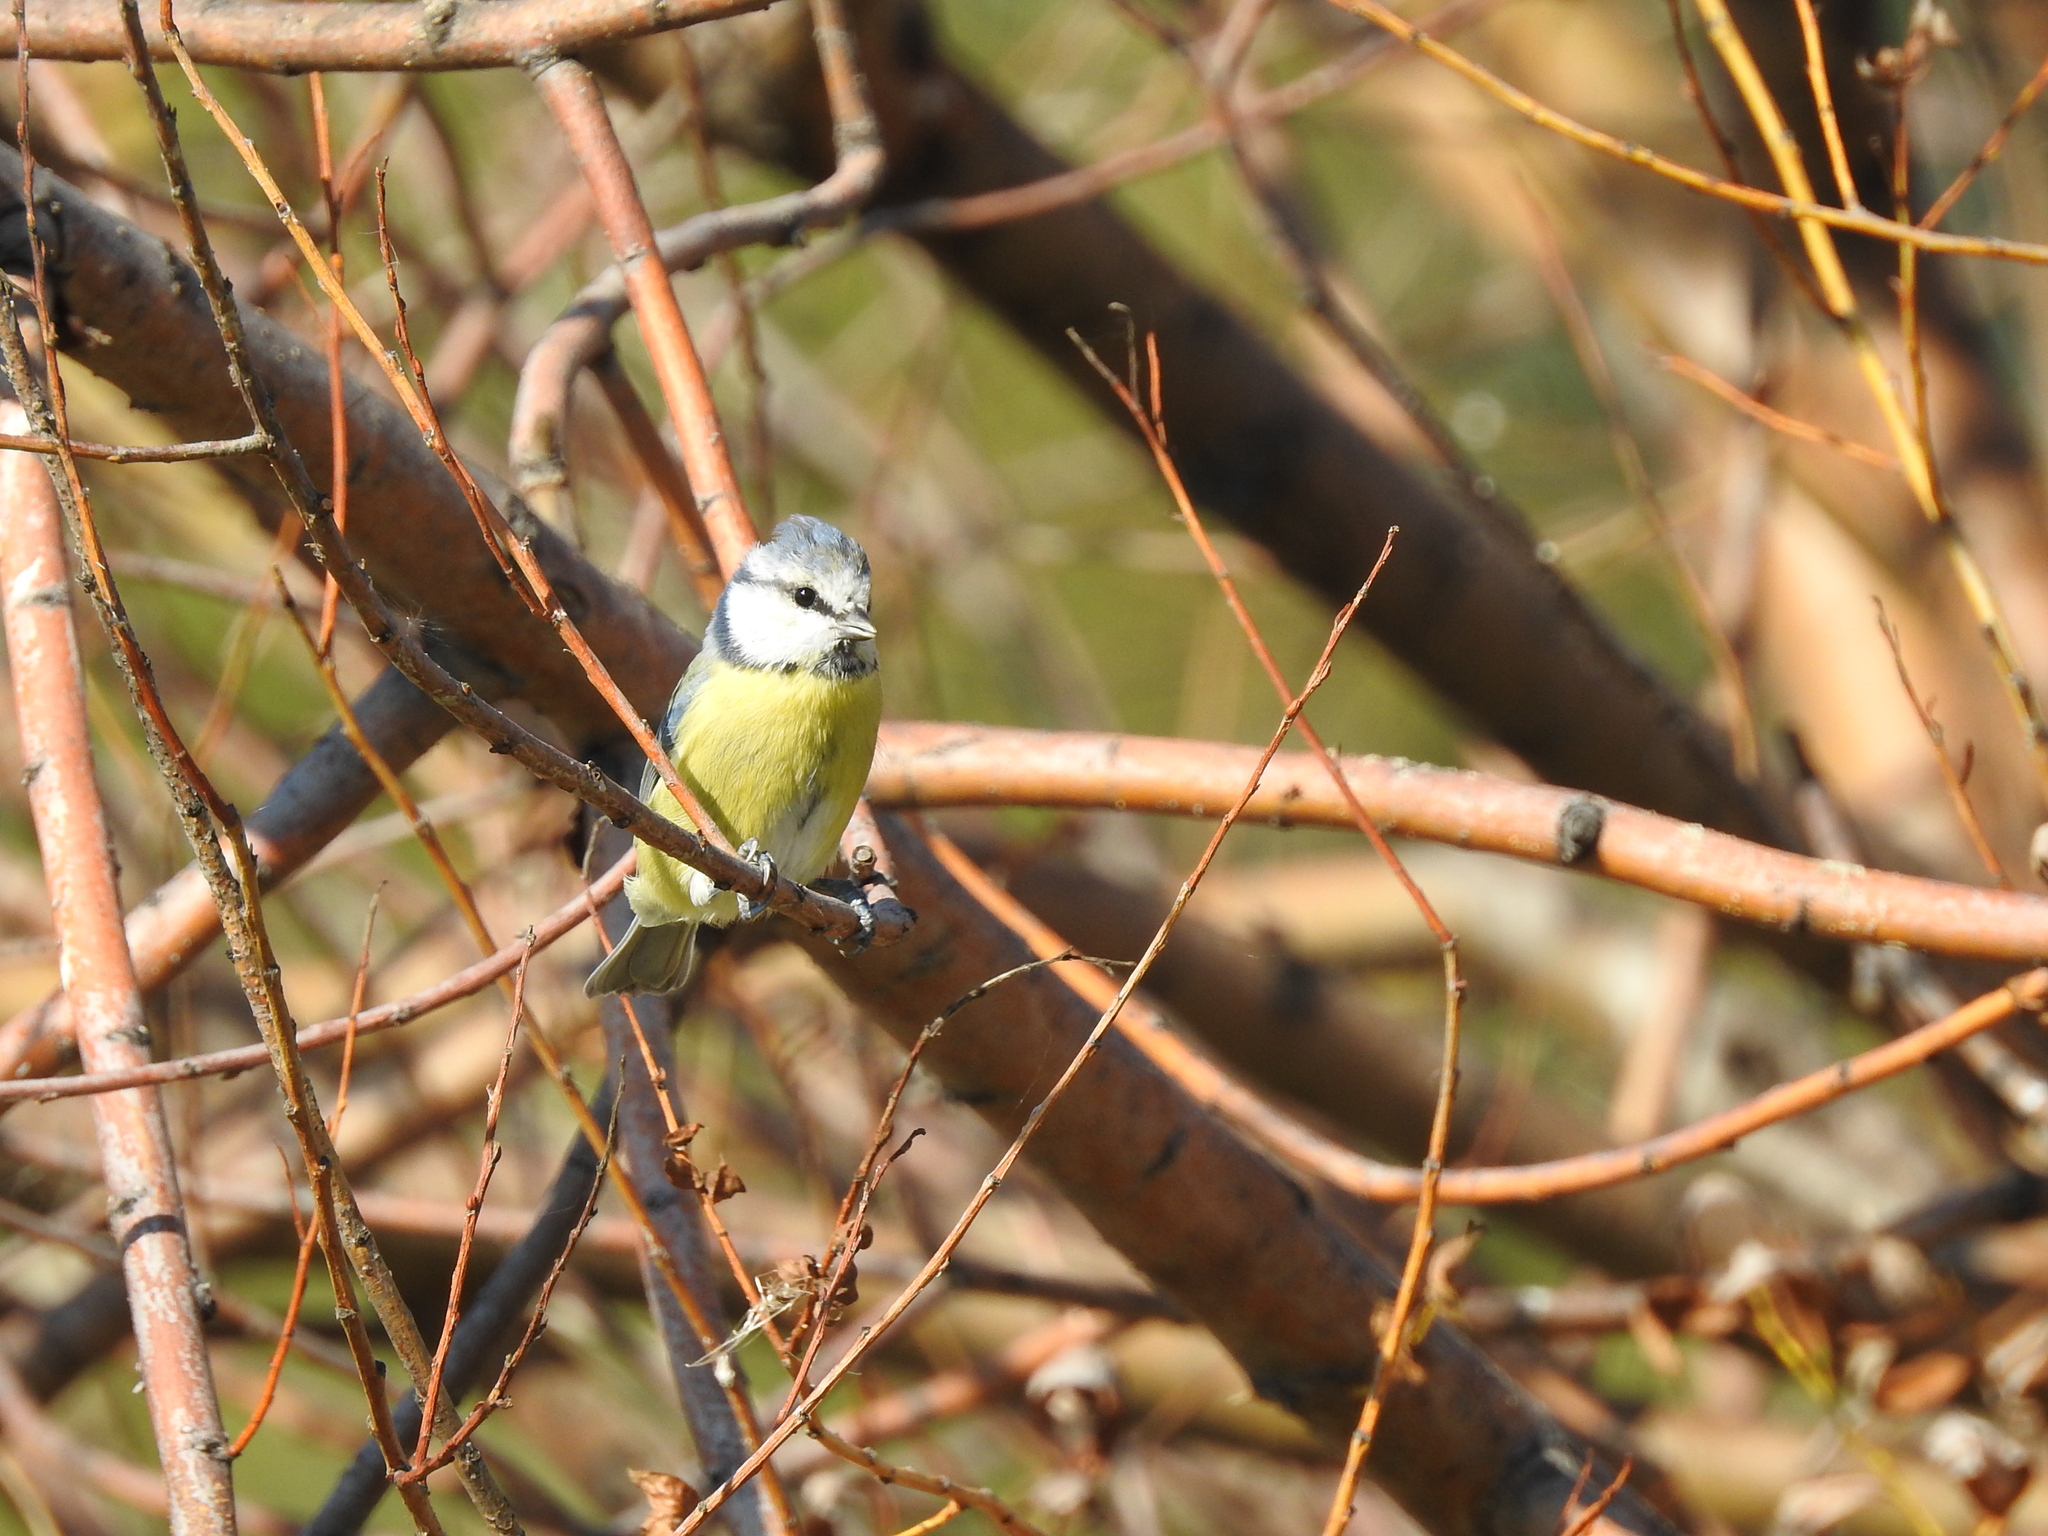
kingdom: Animalia
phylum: Chordata
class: Aves
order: Passeriformes
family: Paridae
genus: Cyanistes
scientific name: Cyanistes caeruleus
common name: Eurasian blue tit
